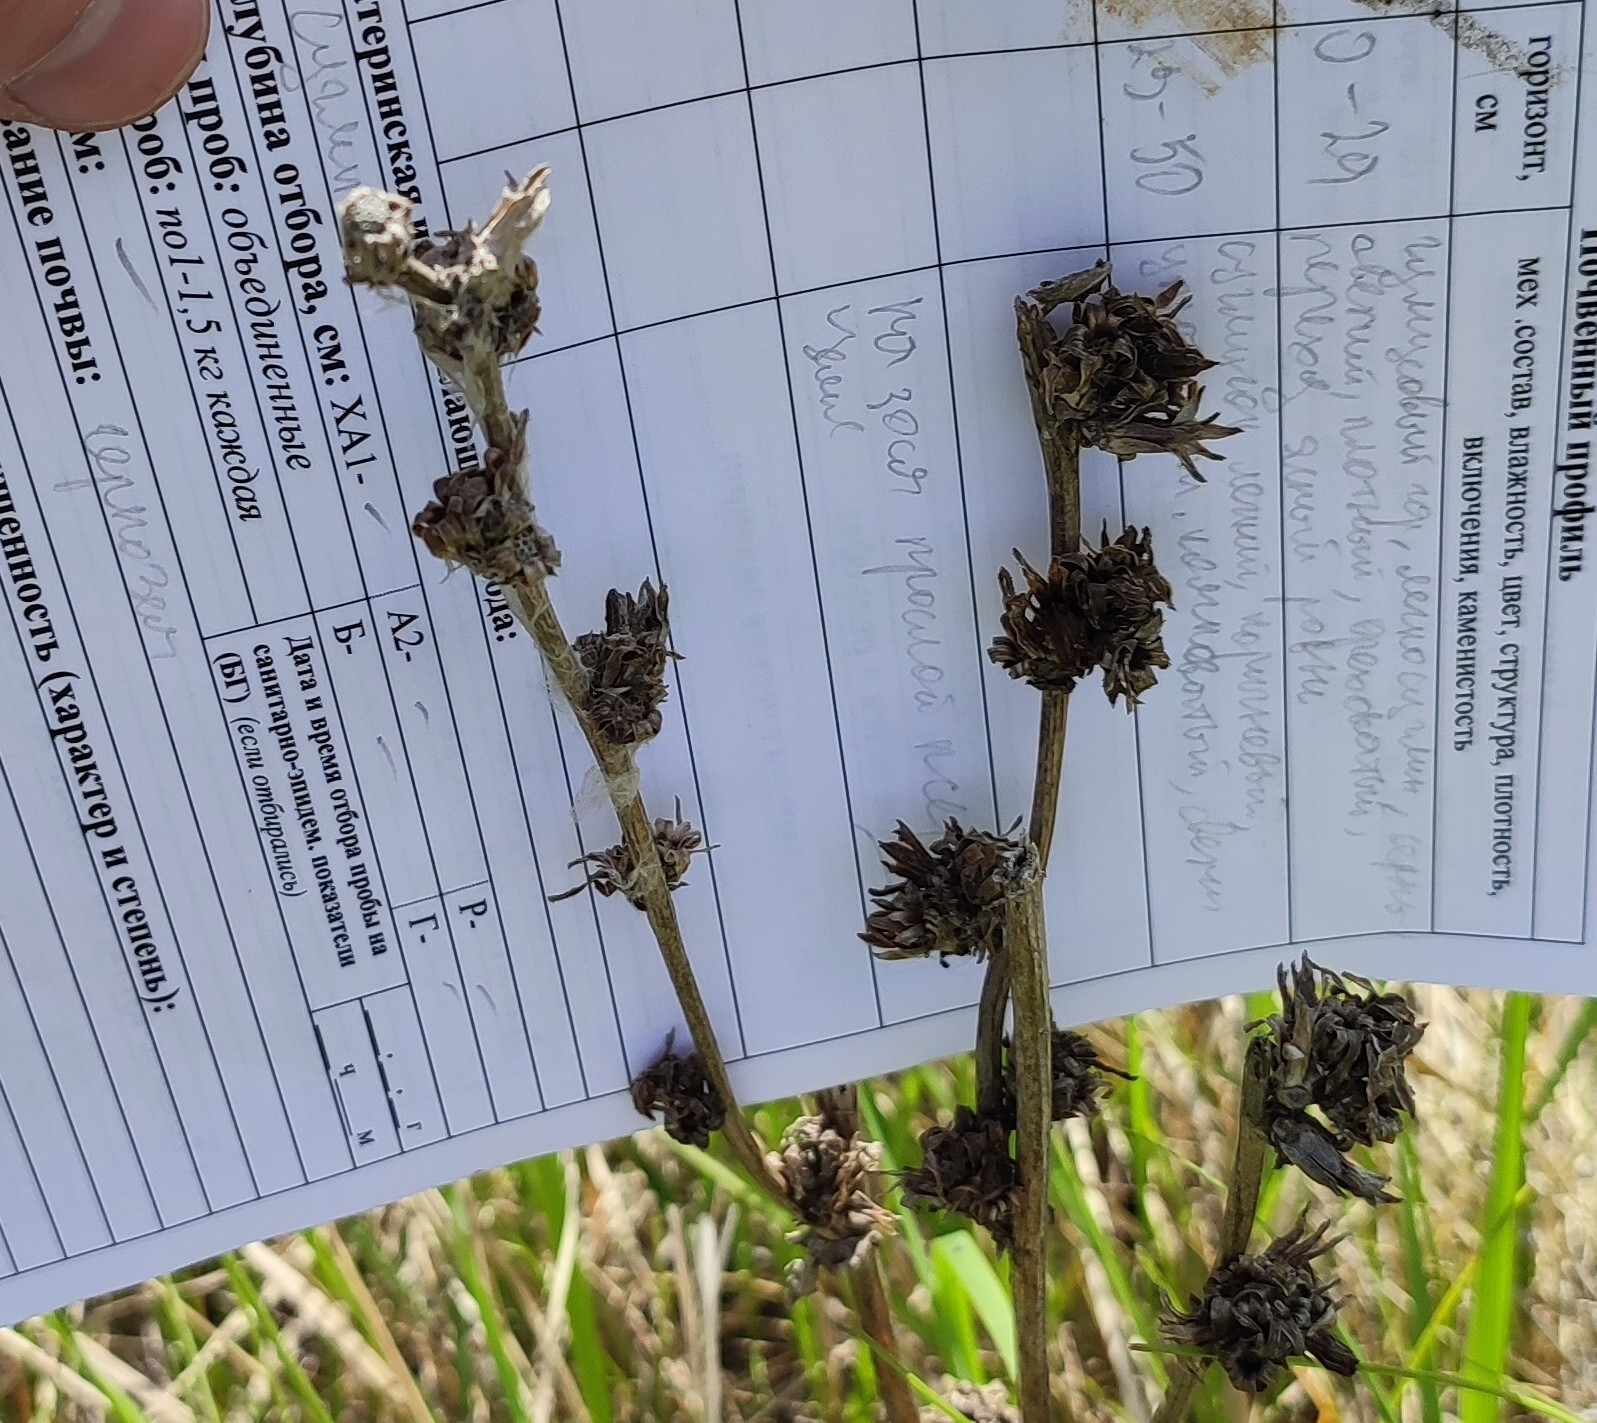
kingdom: Plantae
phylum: Tracheophyta
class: Magnoliopsida
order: Asterales
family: Asteraceae
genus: Cichorium
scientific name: Cichorium intybus
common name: Chicory
